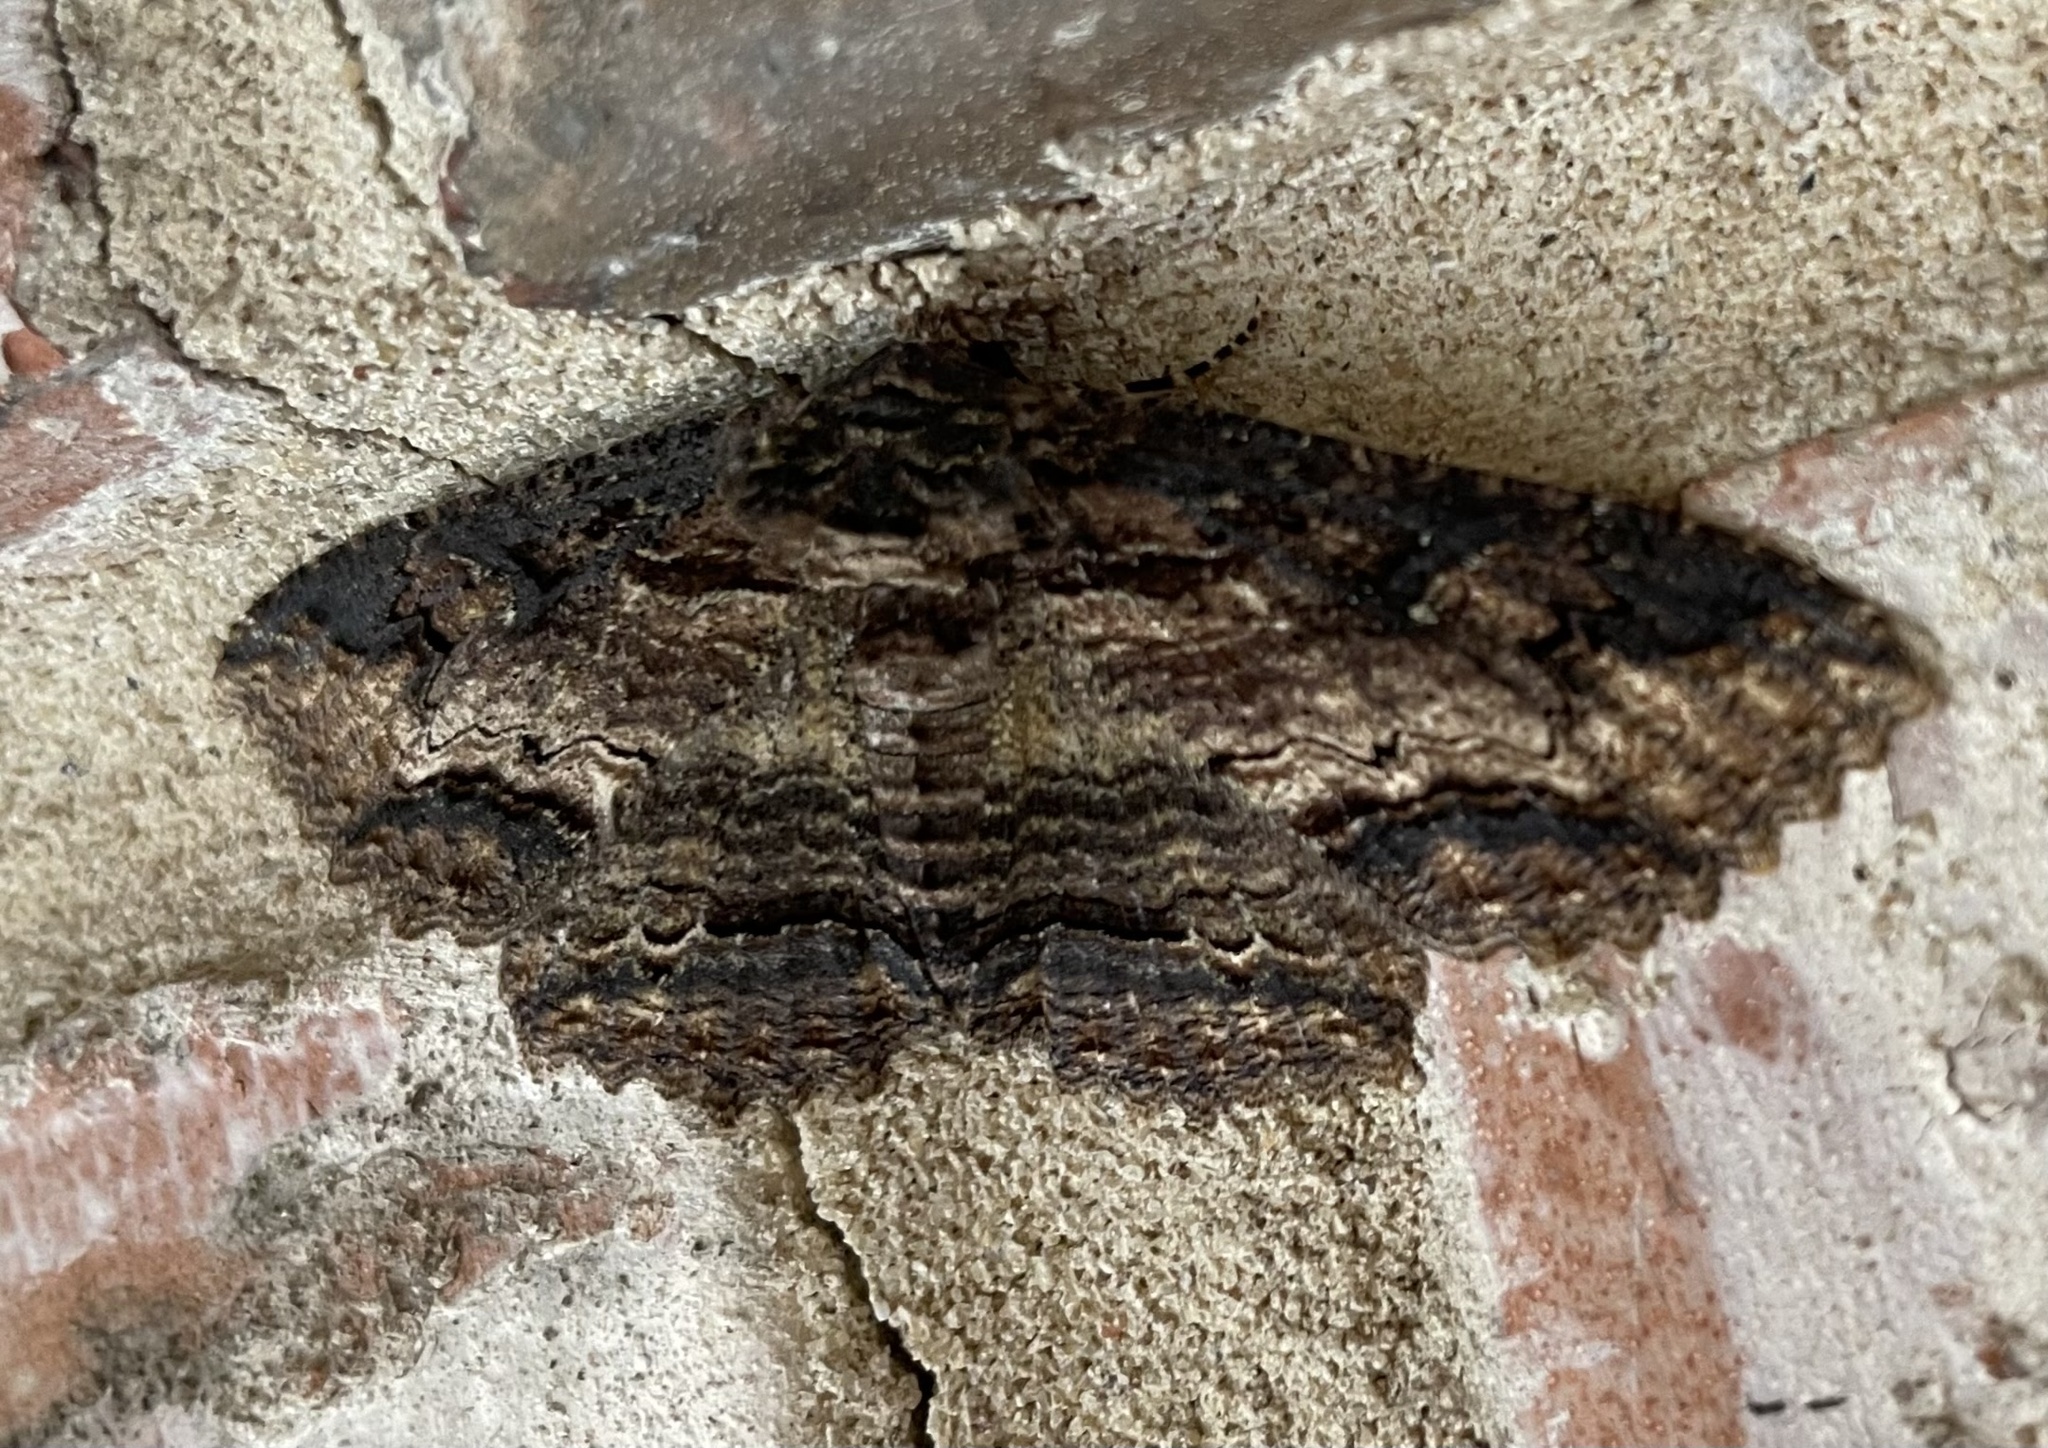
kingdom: Animalia
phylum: Arthropoda
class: Insecta
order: Lepidoptera
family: Erebidae
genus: Zale
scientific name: Zale lunata
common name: Lunate zale moth
